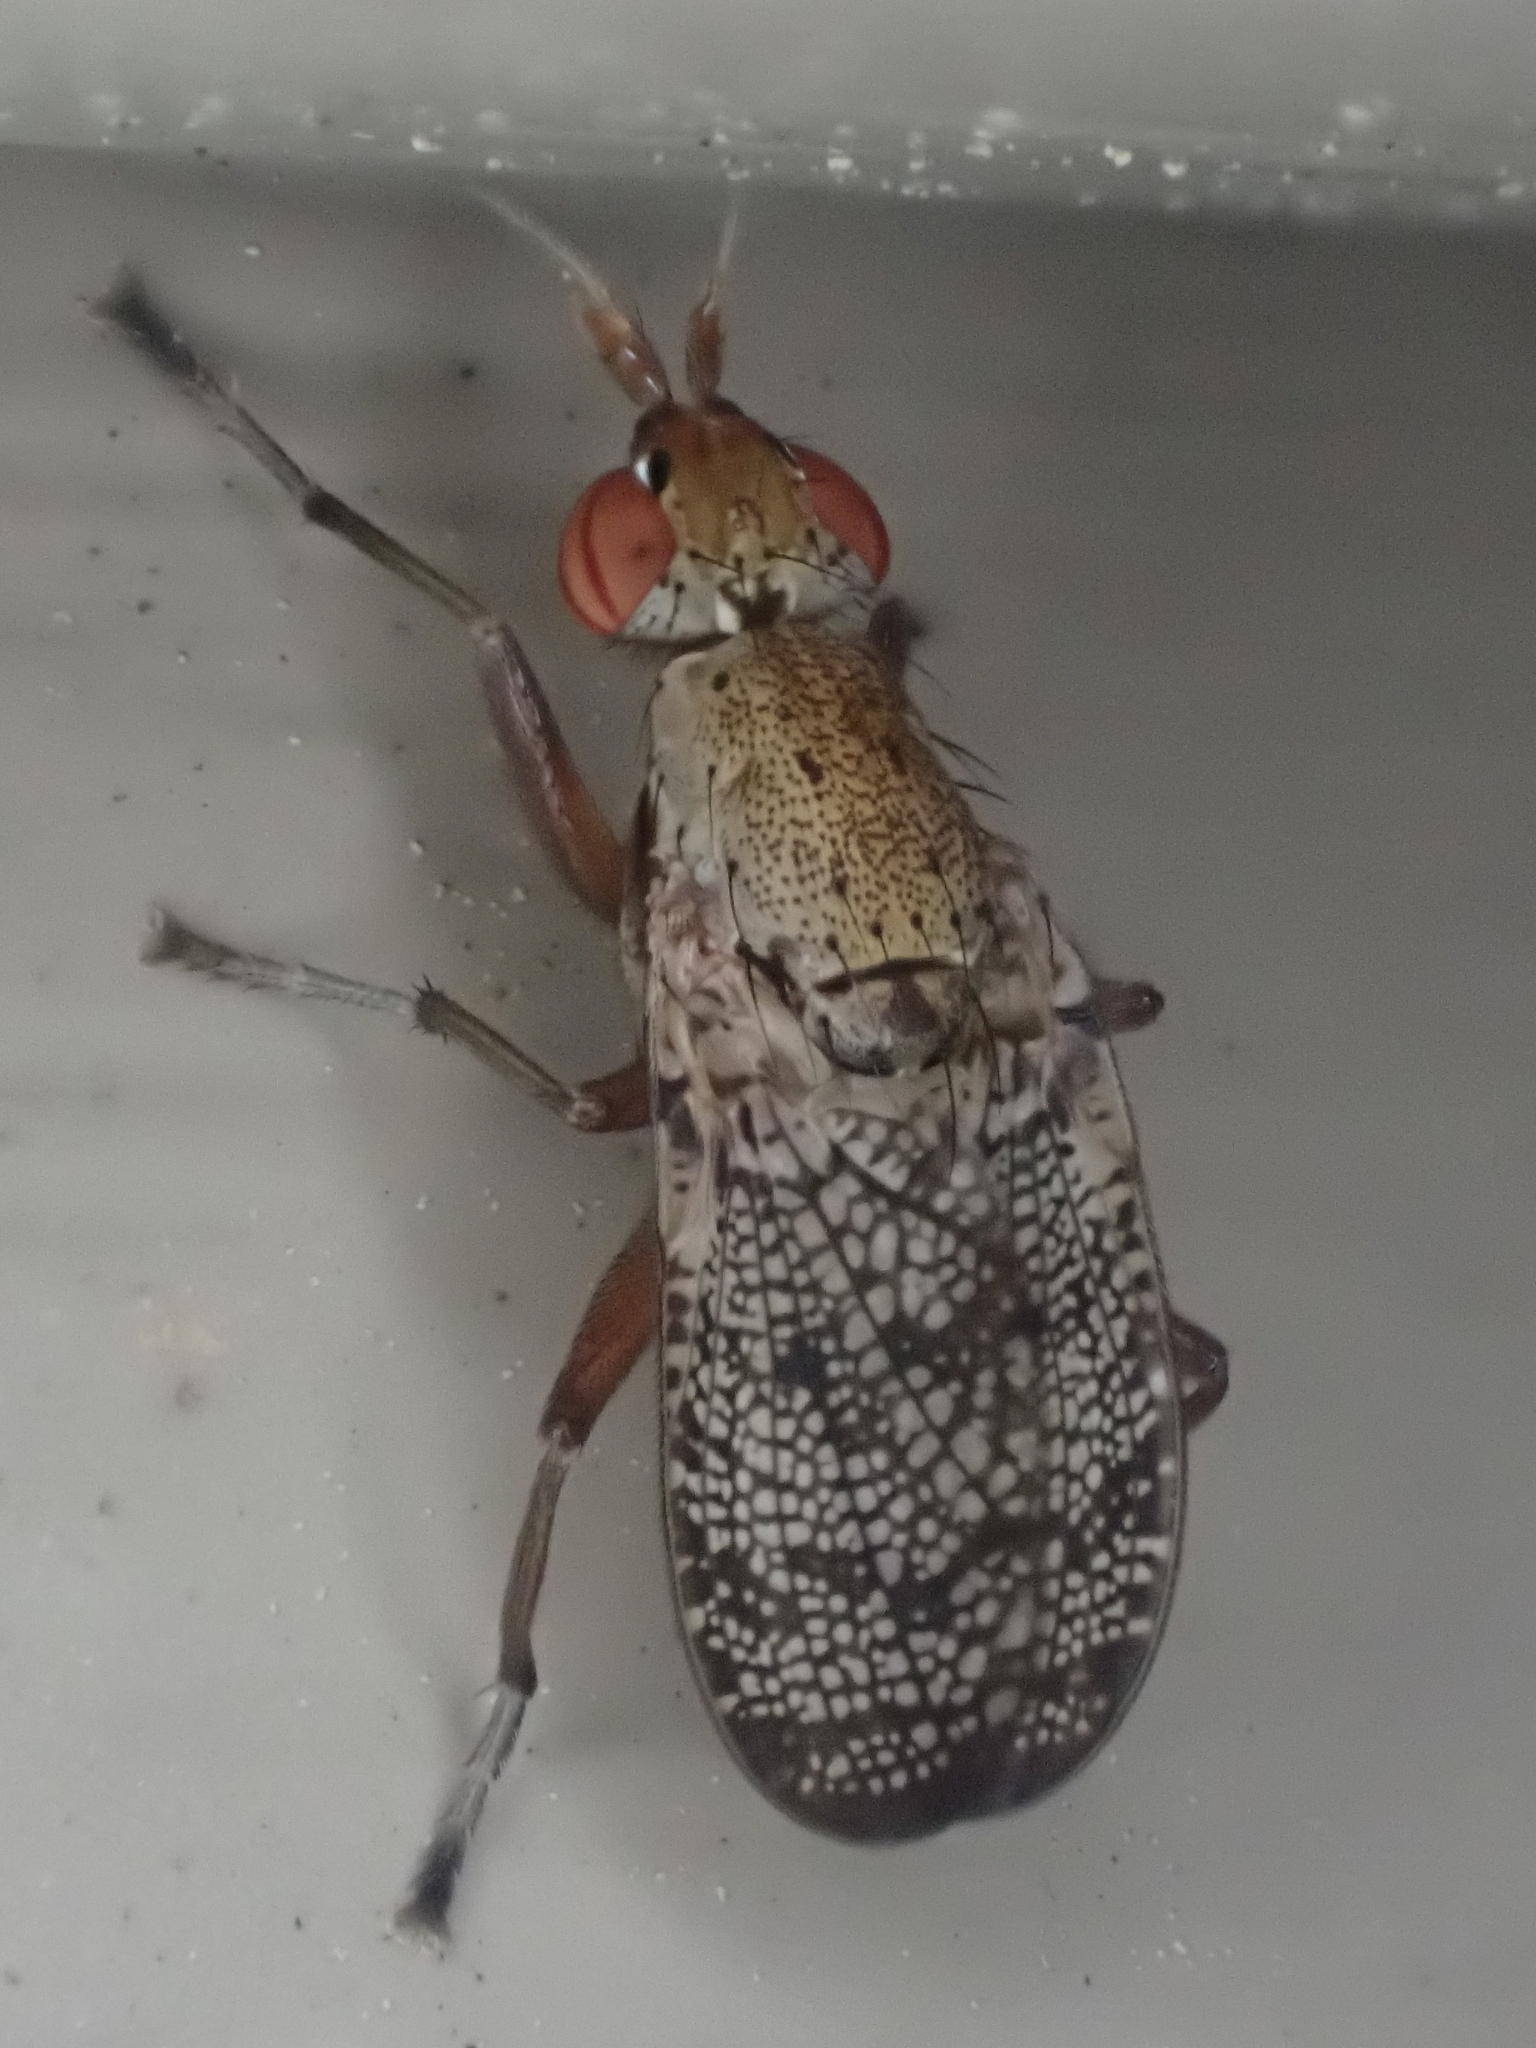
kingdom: Animalia
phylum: Arthropoda
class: Insecta
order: Diptera
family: Sciomyzidae
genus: Euthycera
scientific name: Euthycera flavescens
